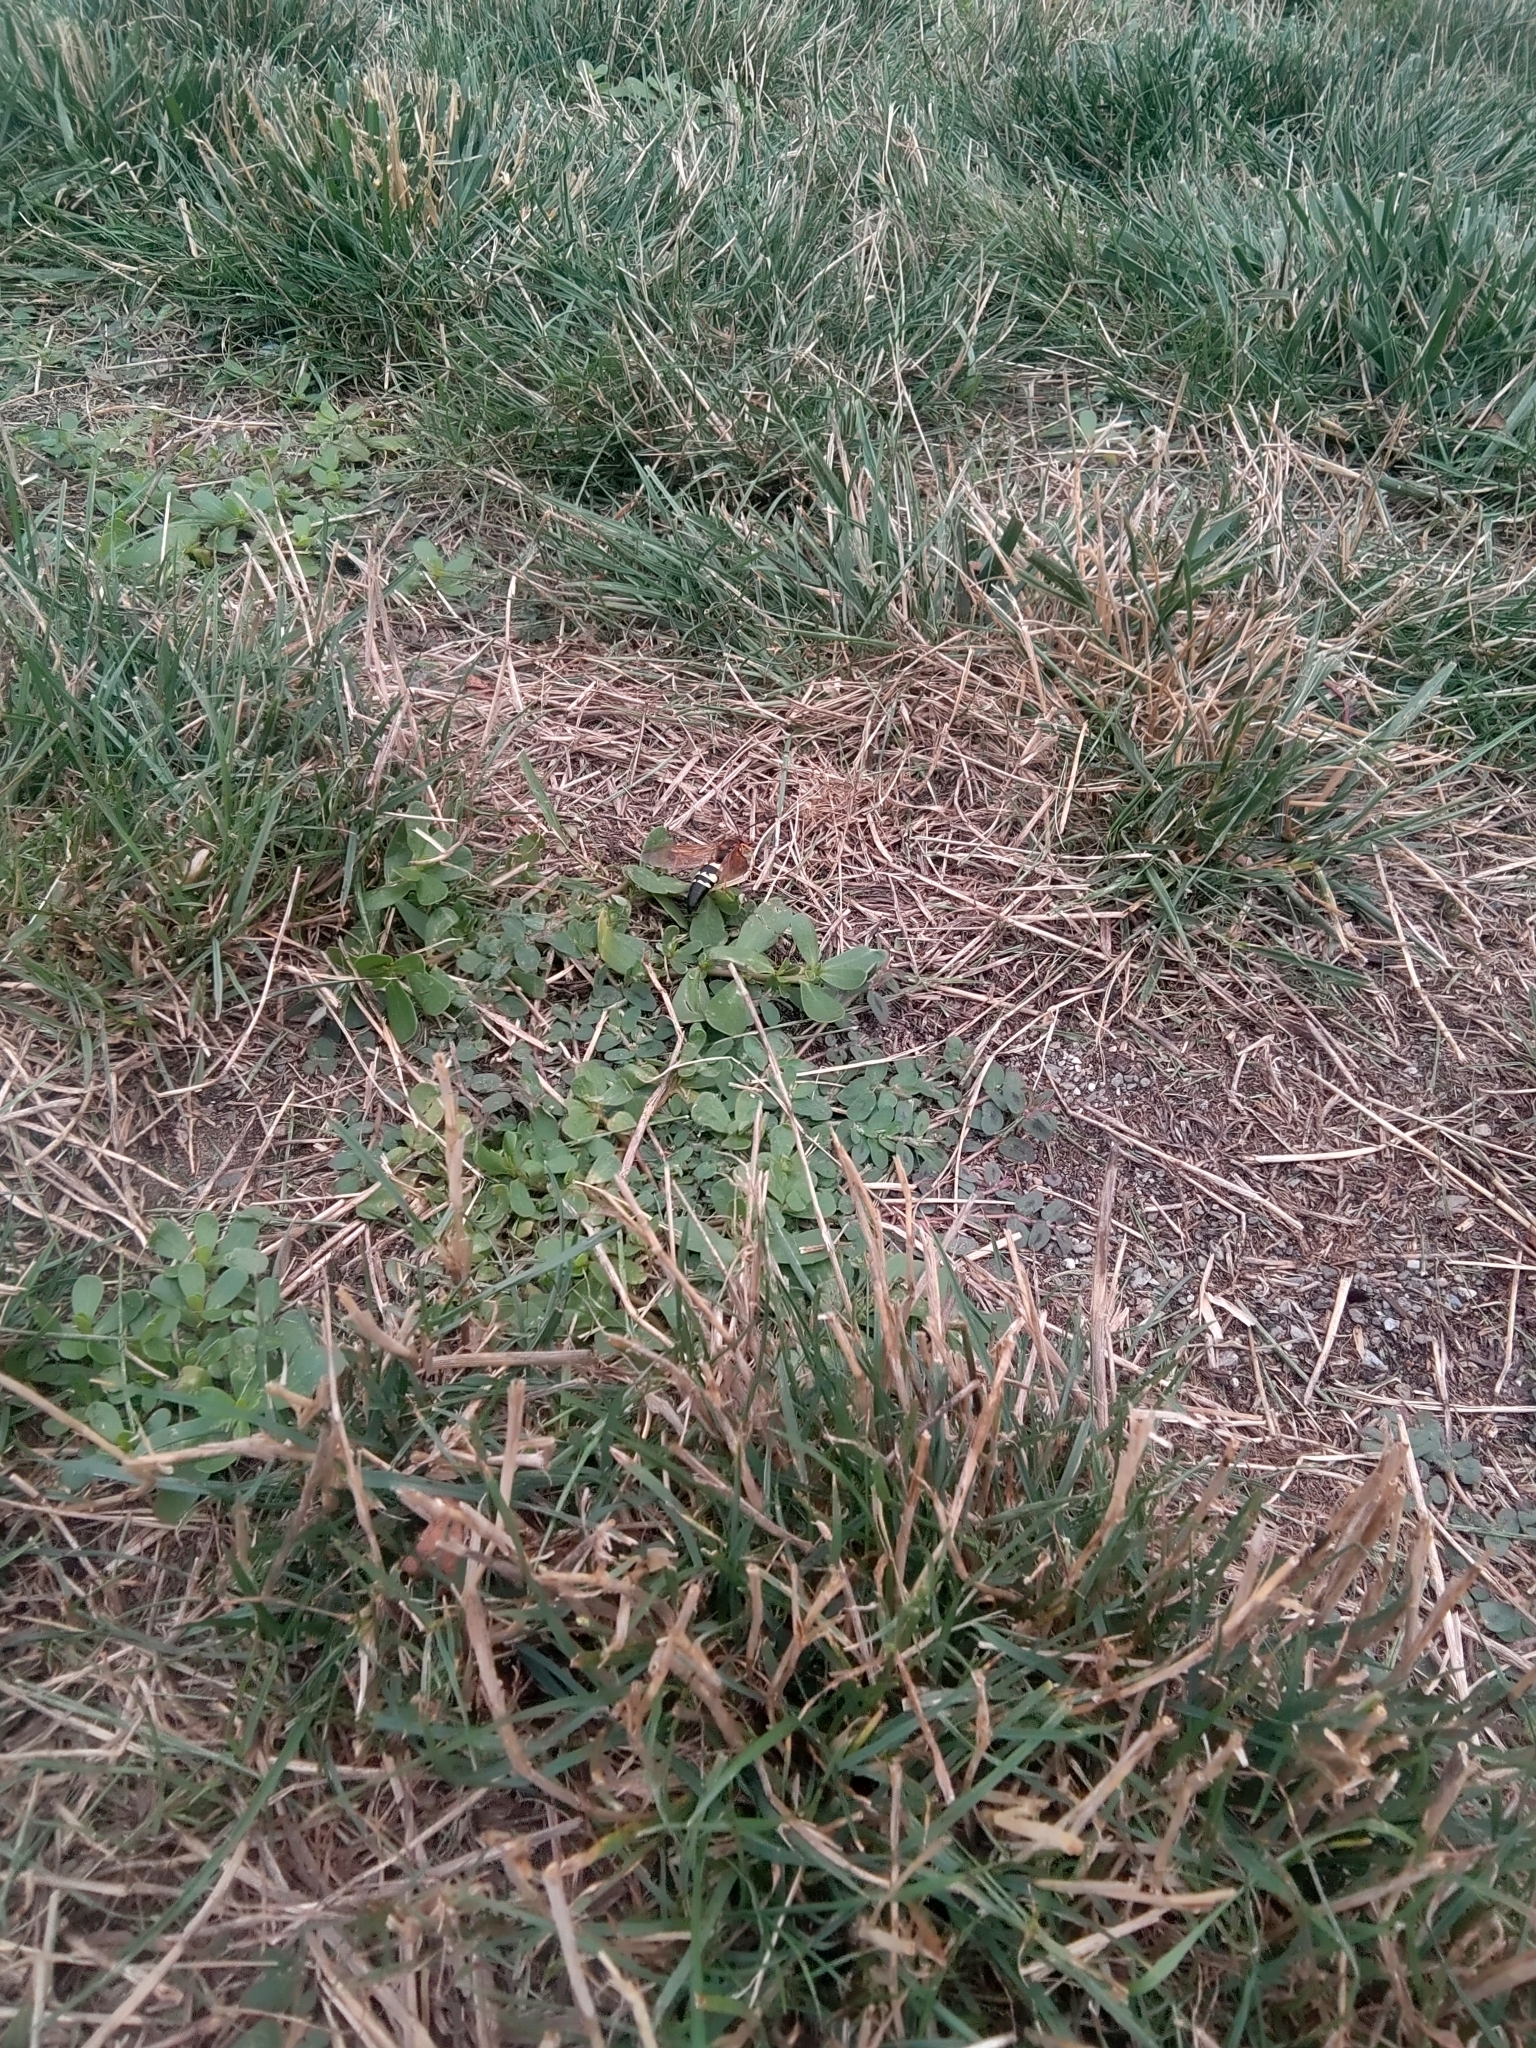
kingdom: Animalia
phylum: Arthropoda
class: Insecta
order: Hymenoptera
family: Crabronidae
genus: Sphecius
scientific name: Sphecius speciosus
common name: Cicada killer
